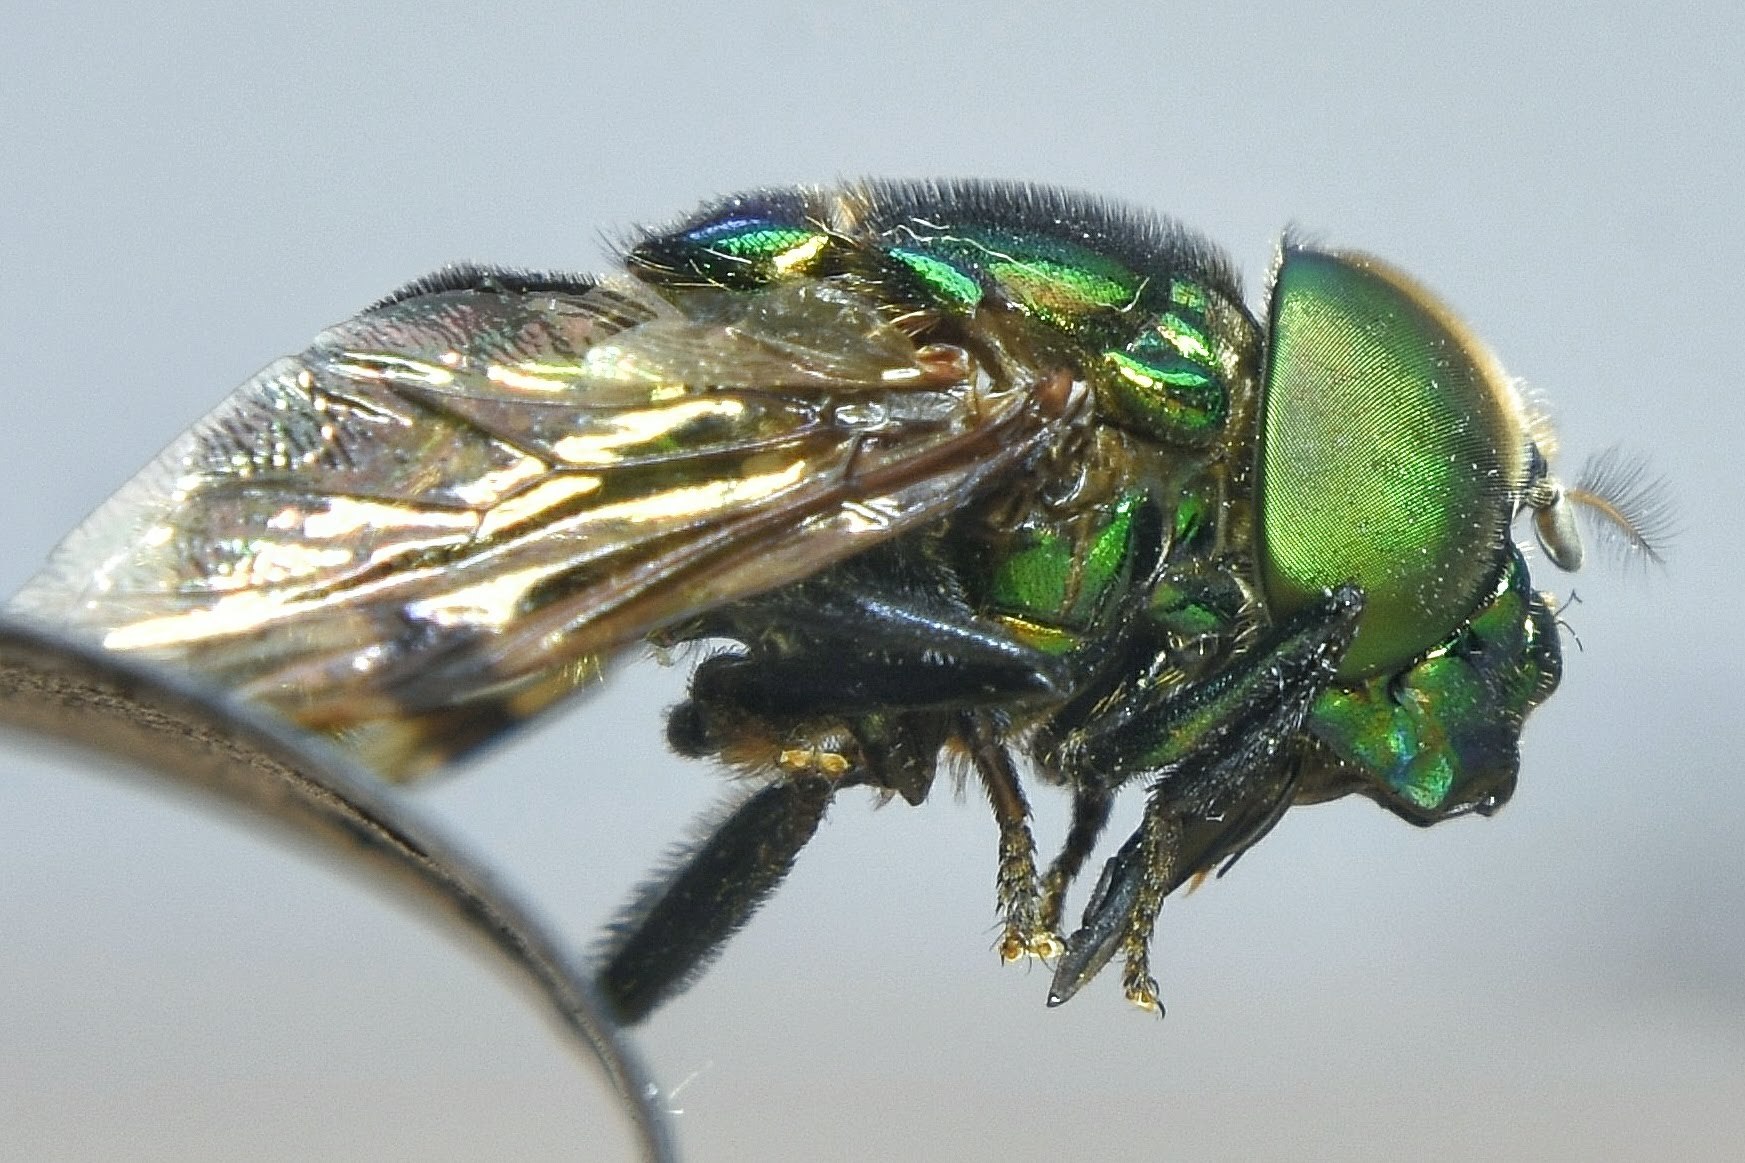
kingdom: Animalia
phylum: Arthropoda
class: Insecta
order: Diptera
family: Syrphidae
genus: Ornidia
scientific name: Ornidia obesa
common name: Syrphid fly
